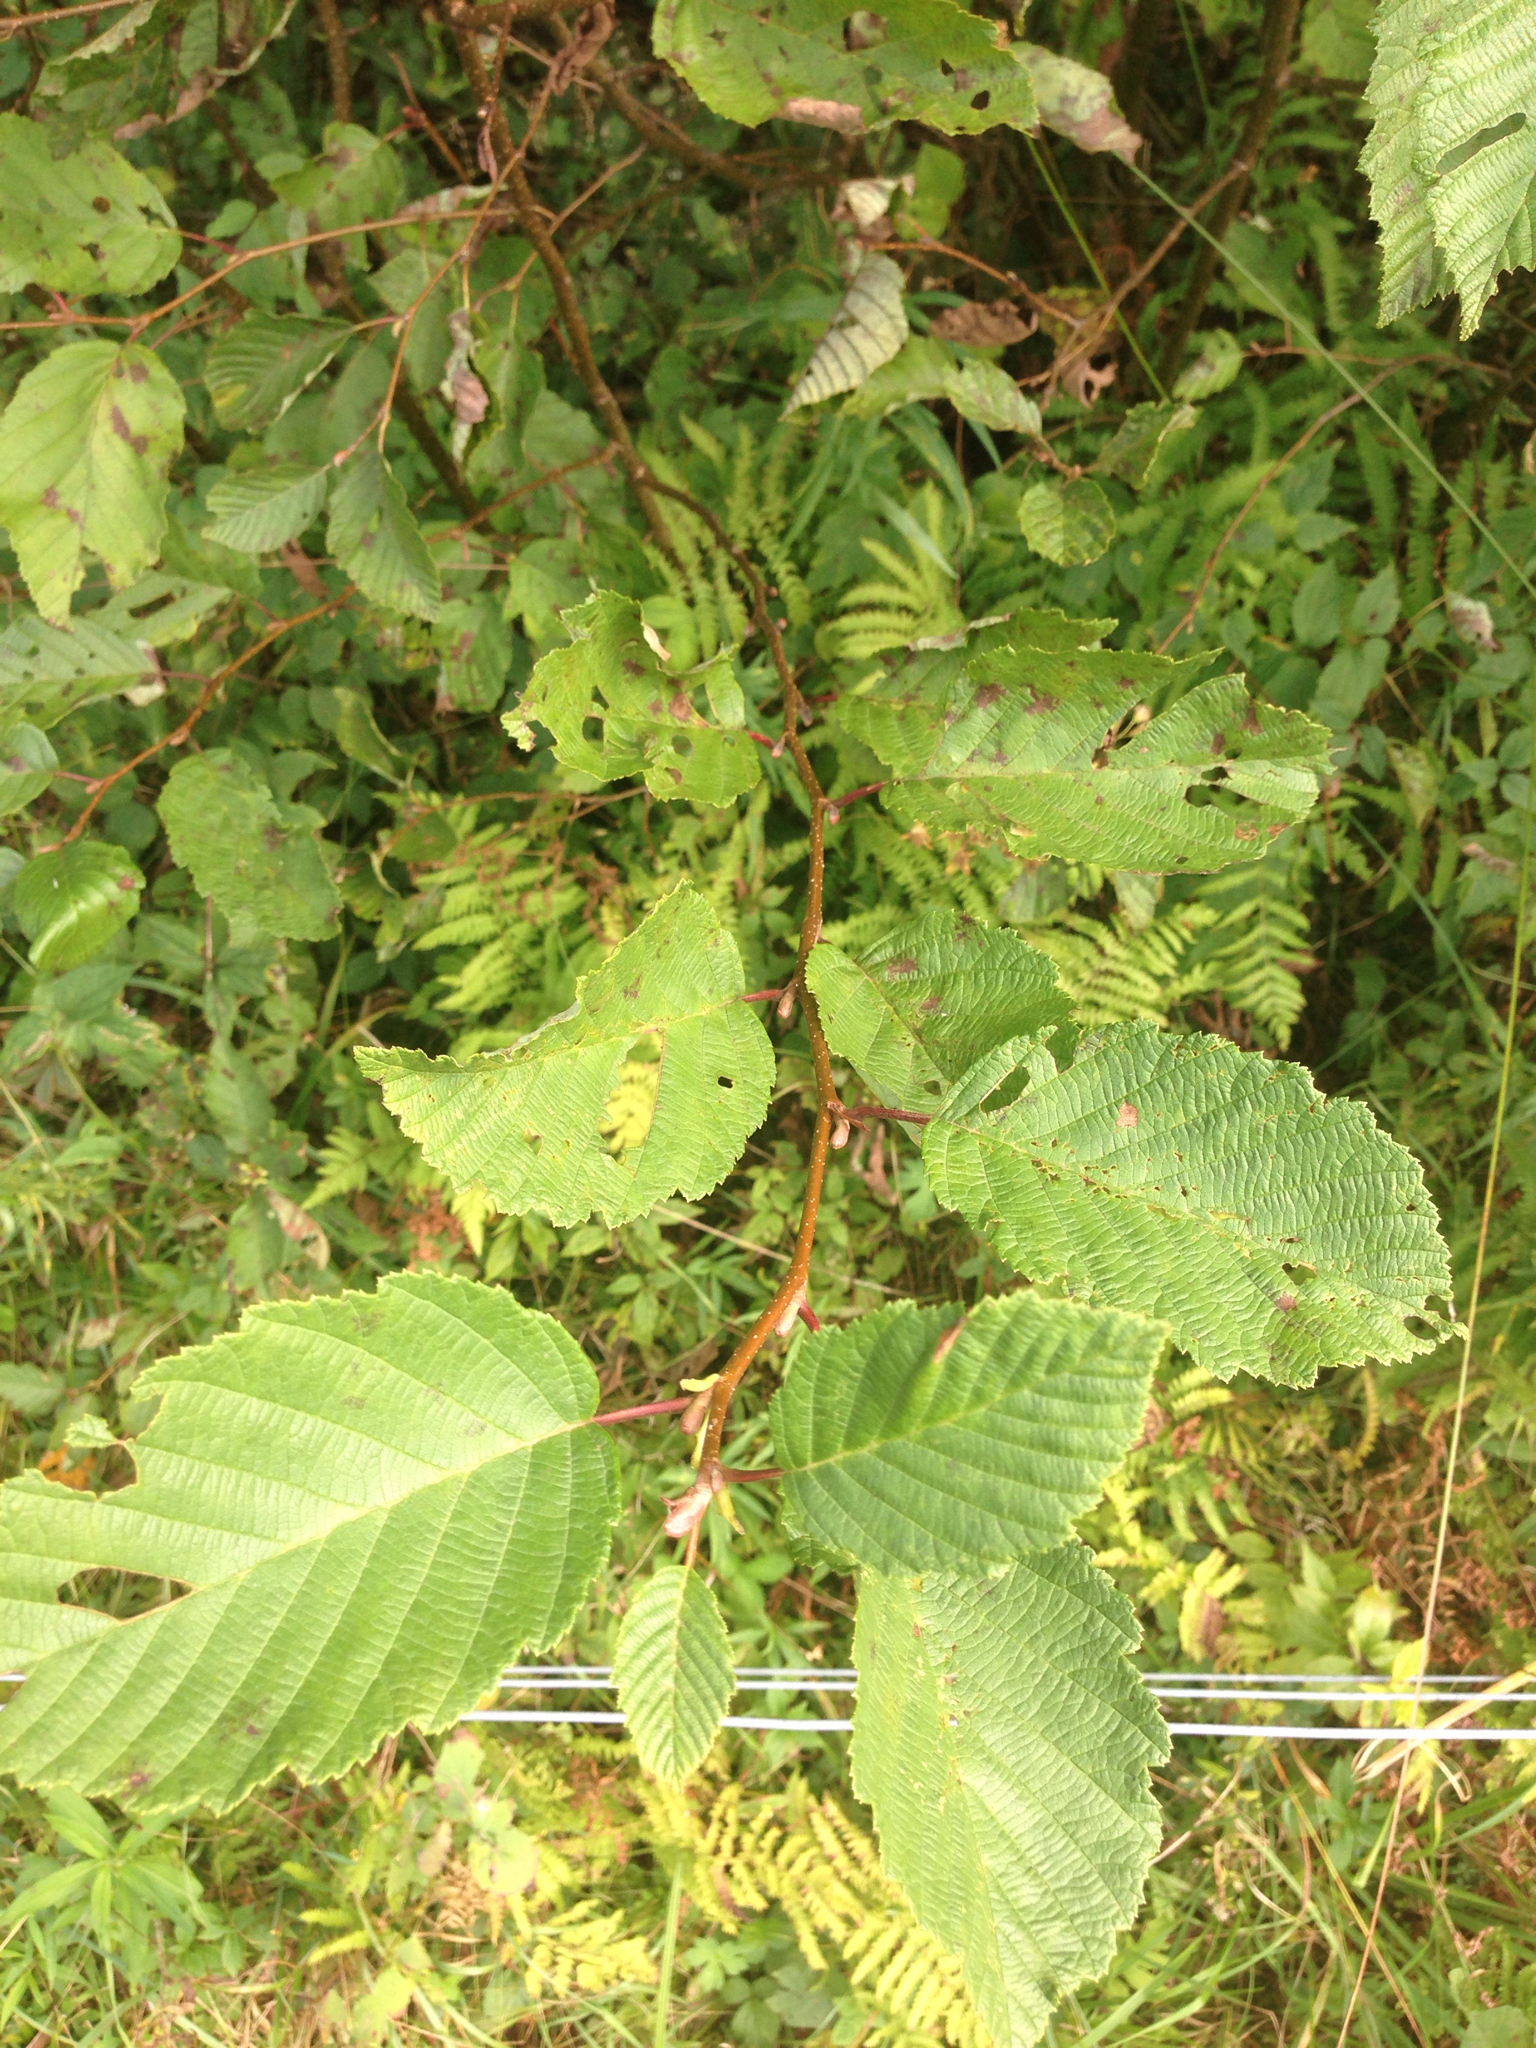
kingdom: Plantae
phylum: Tracheophyta
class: Magnoliopsida
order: Fagales
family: Betulaceae
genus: Alnus
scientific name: Alnus incana
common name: Grey alder
